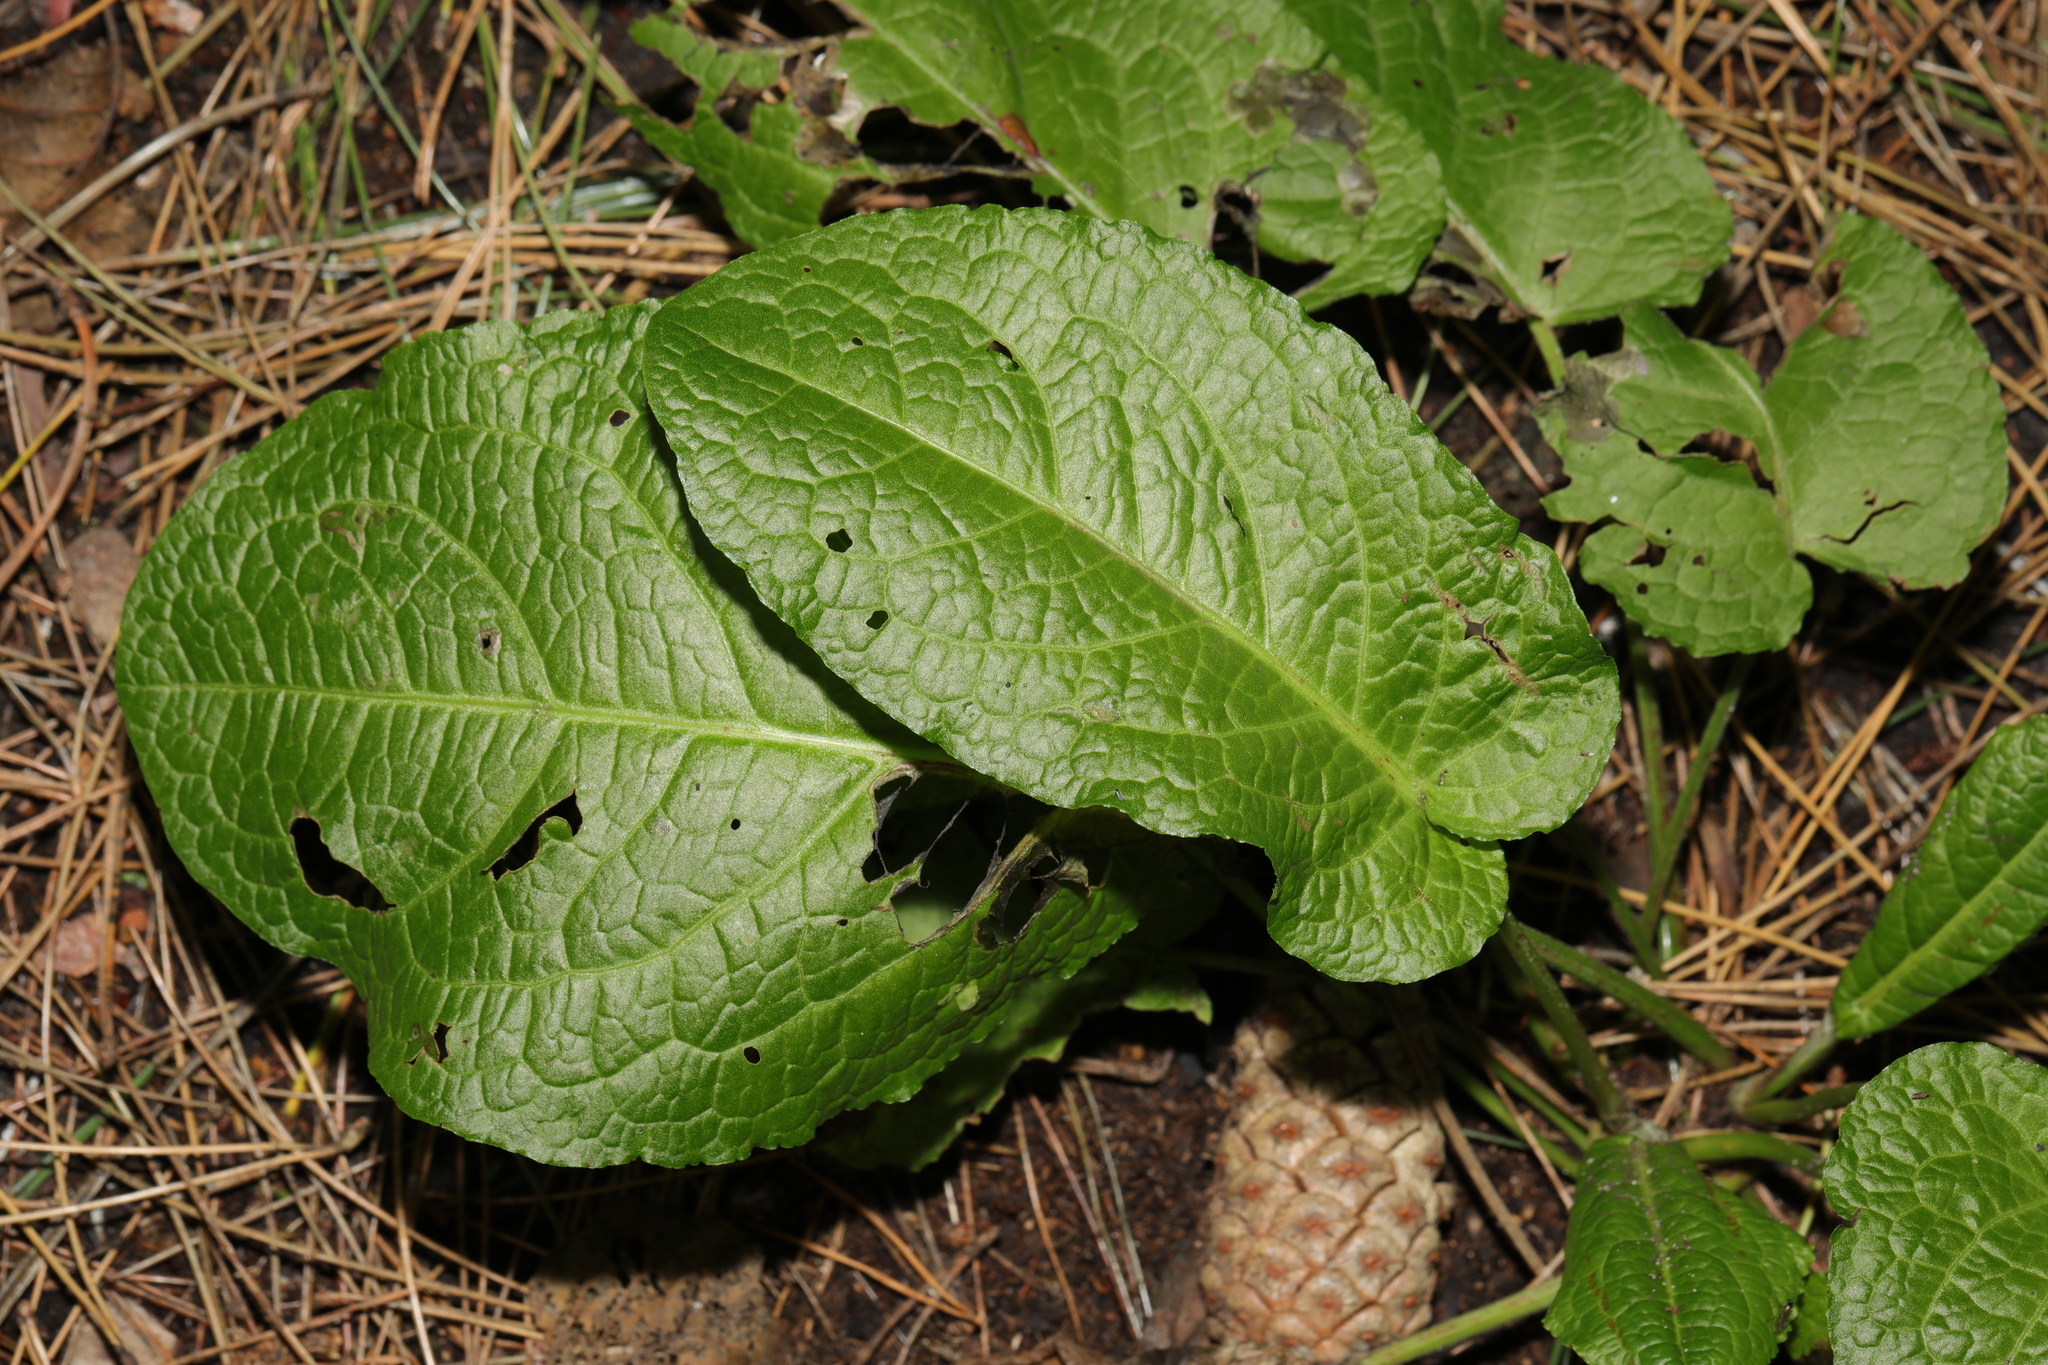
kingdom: Plantae
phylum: Tracheophyta
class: Magnoliopsida
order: Caryophyllales
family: Polygonaceae
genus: Rumex
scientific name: Rumex obtusifolius
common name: Bitter dock
